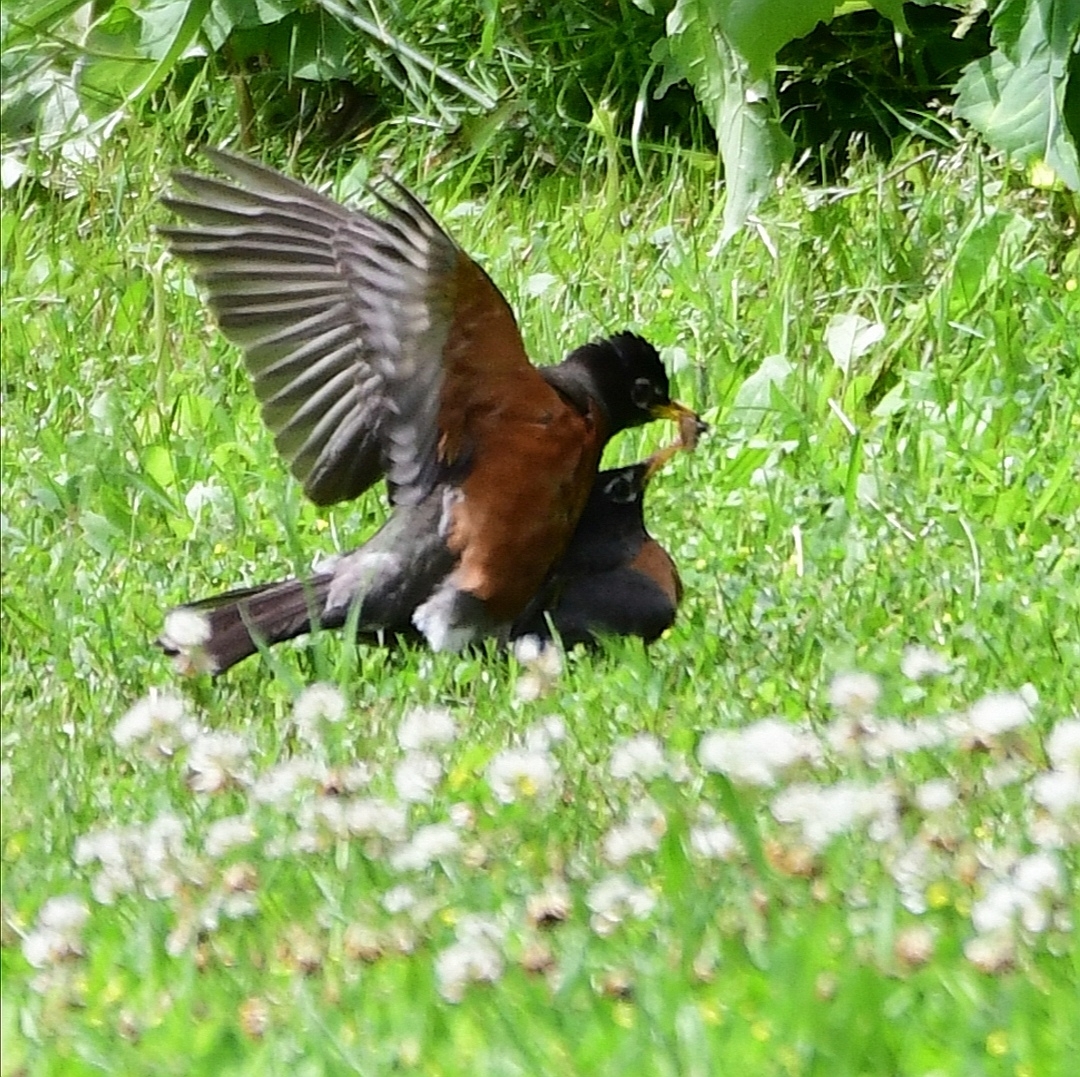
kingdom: Animalia
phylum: Chordata
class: Aves
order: Passeriformes
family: Turdidae
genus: Turdus
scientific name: Turdus migratorius
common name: American robin
